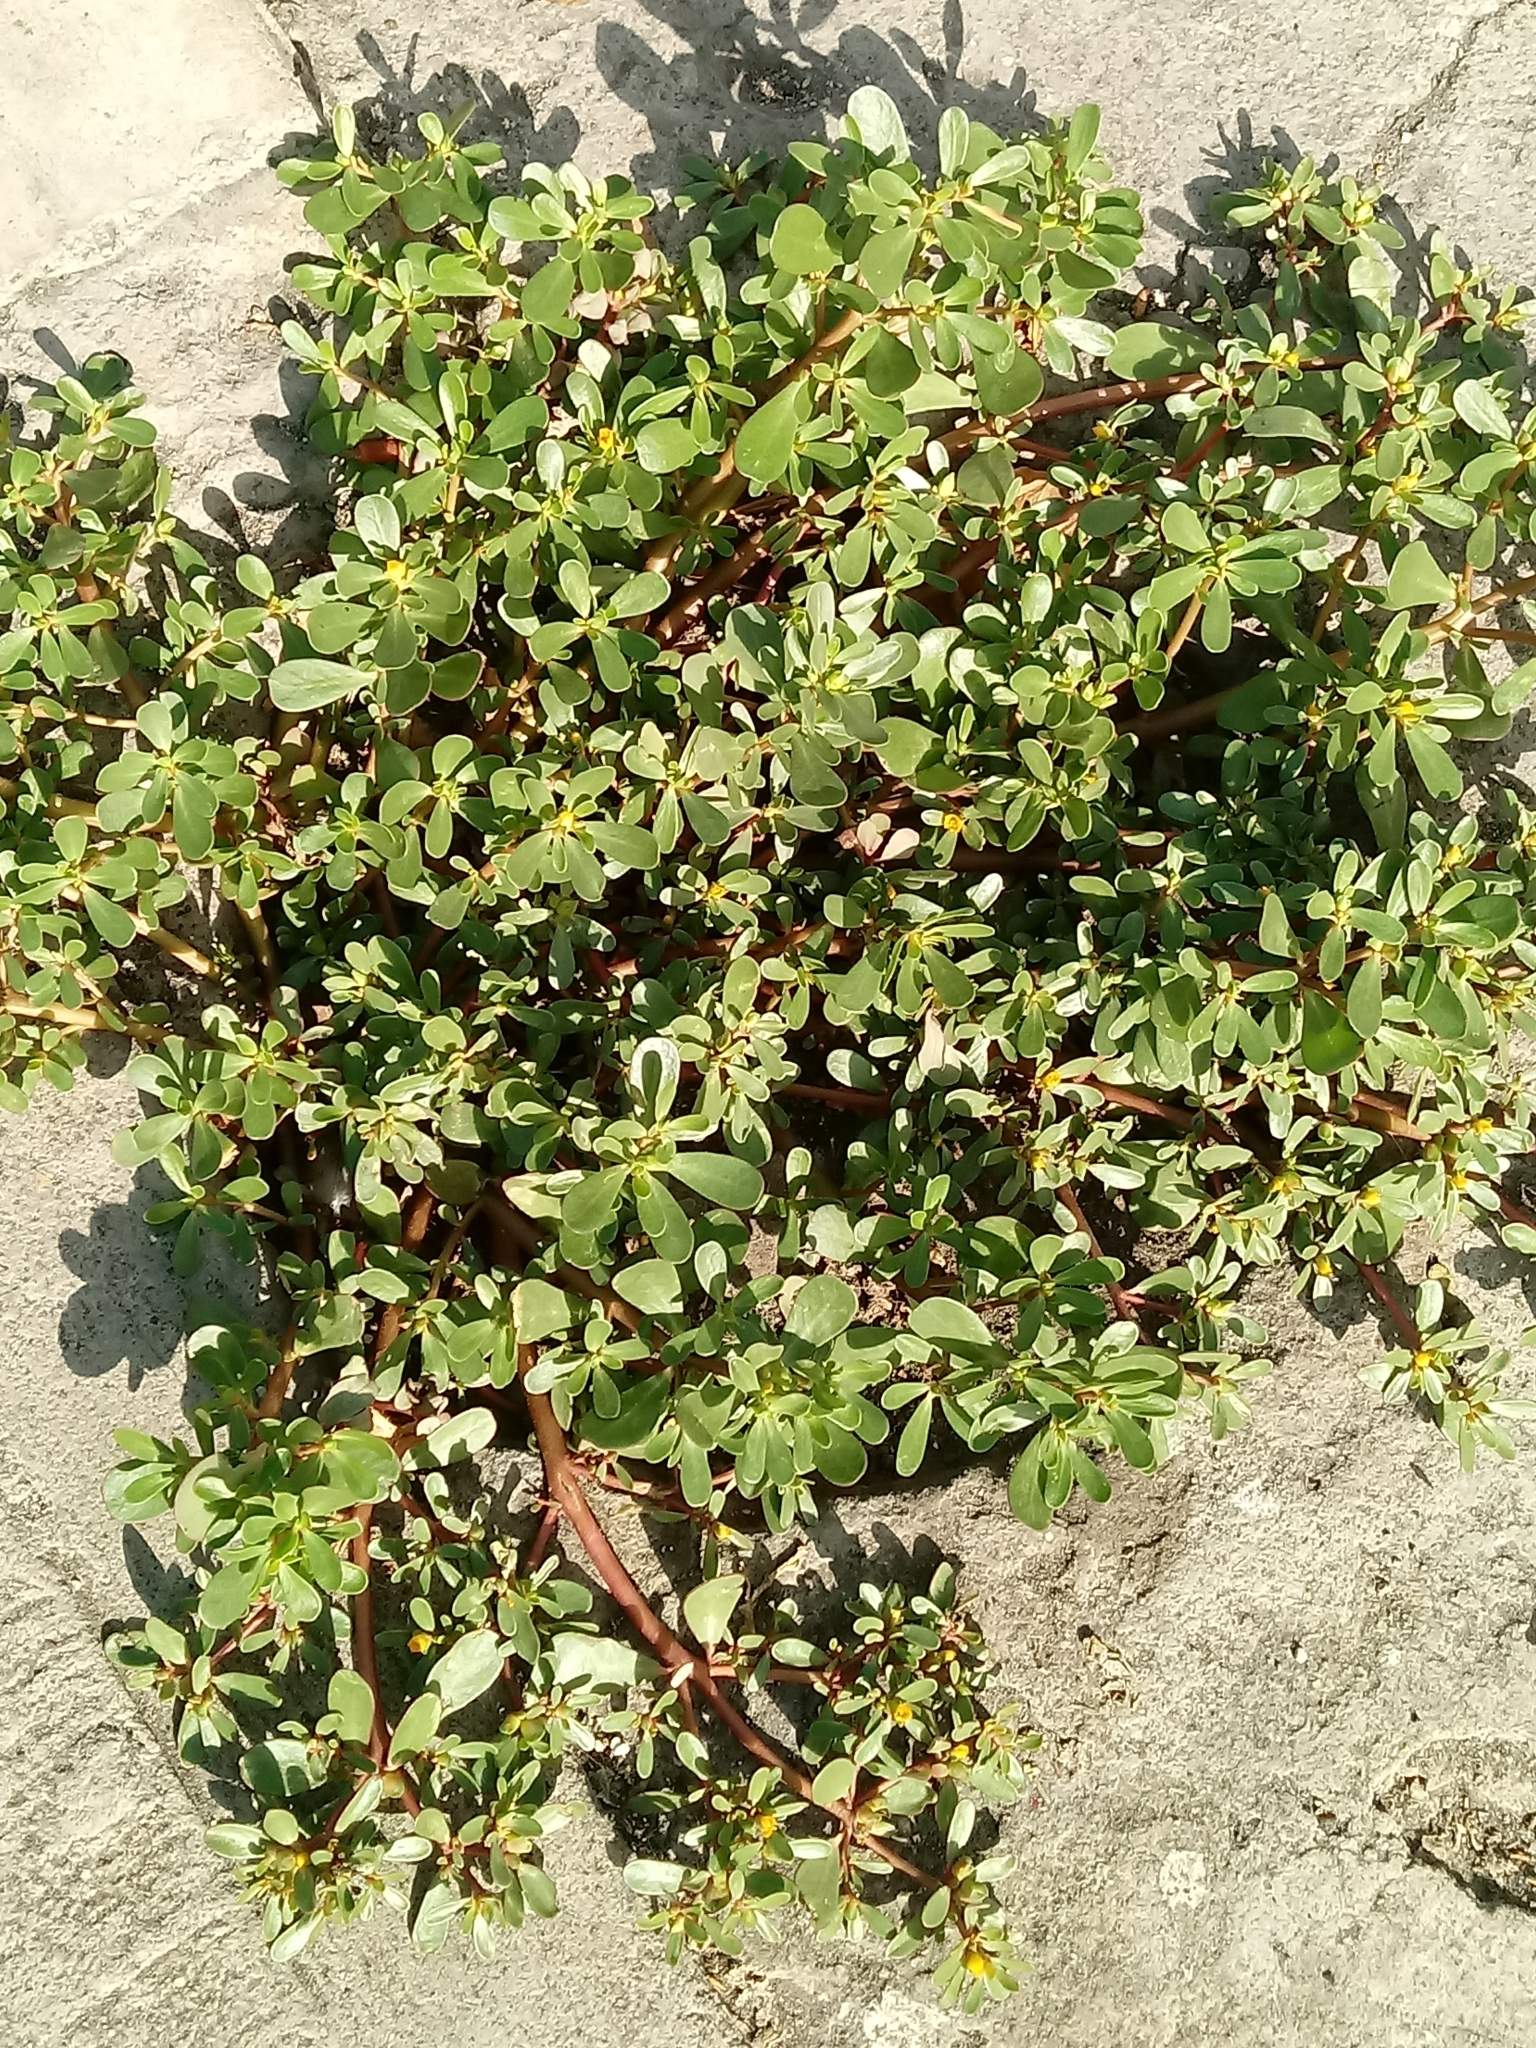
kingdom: Plantae
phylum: Tracheophyta
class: Magnoliopsida
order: Caryophyllales
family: Portulacaceae
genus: Portulaca
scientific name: Portulaca oleracea
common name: Common purslane
